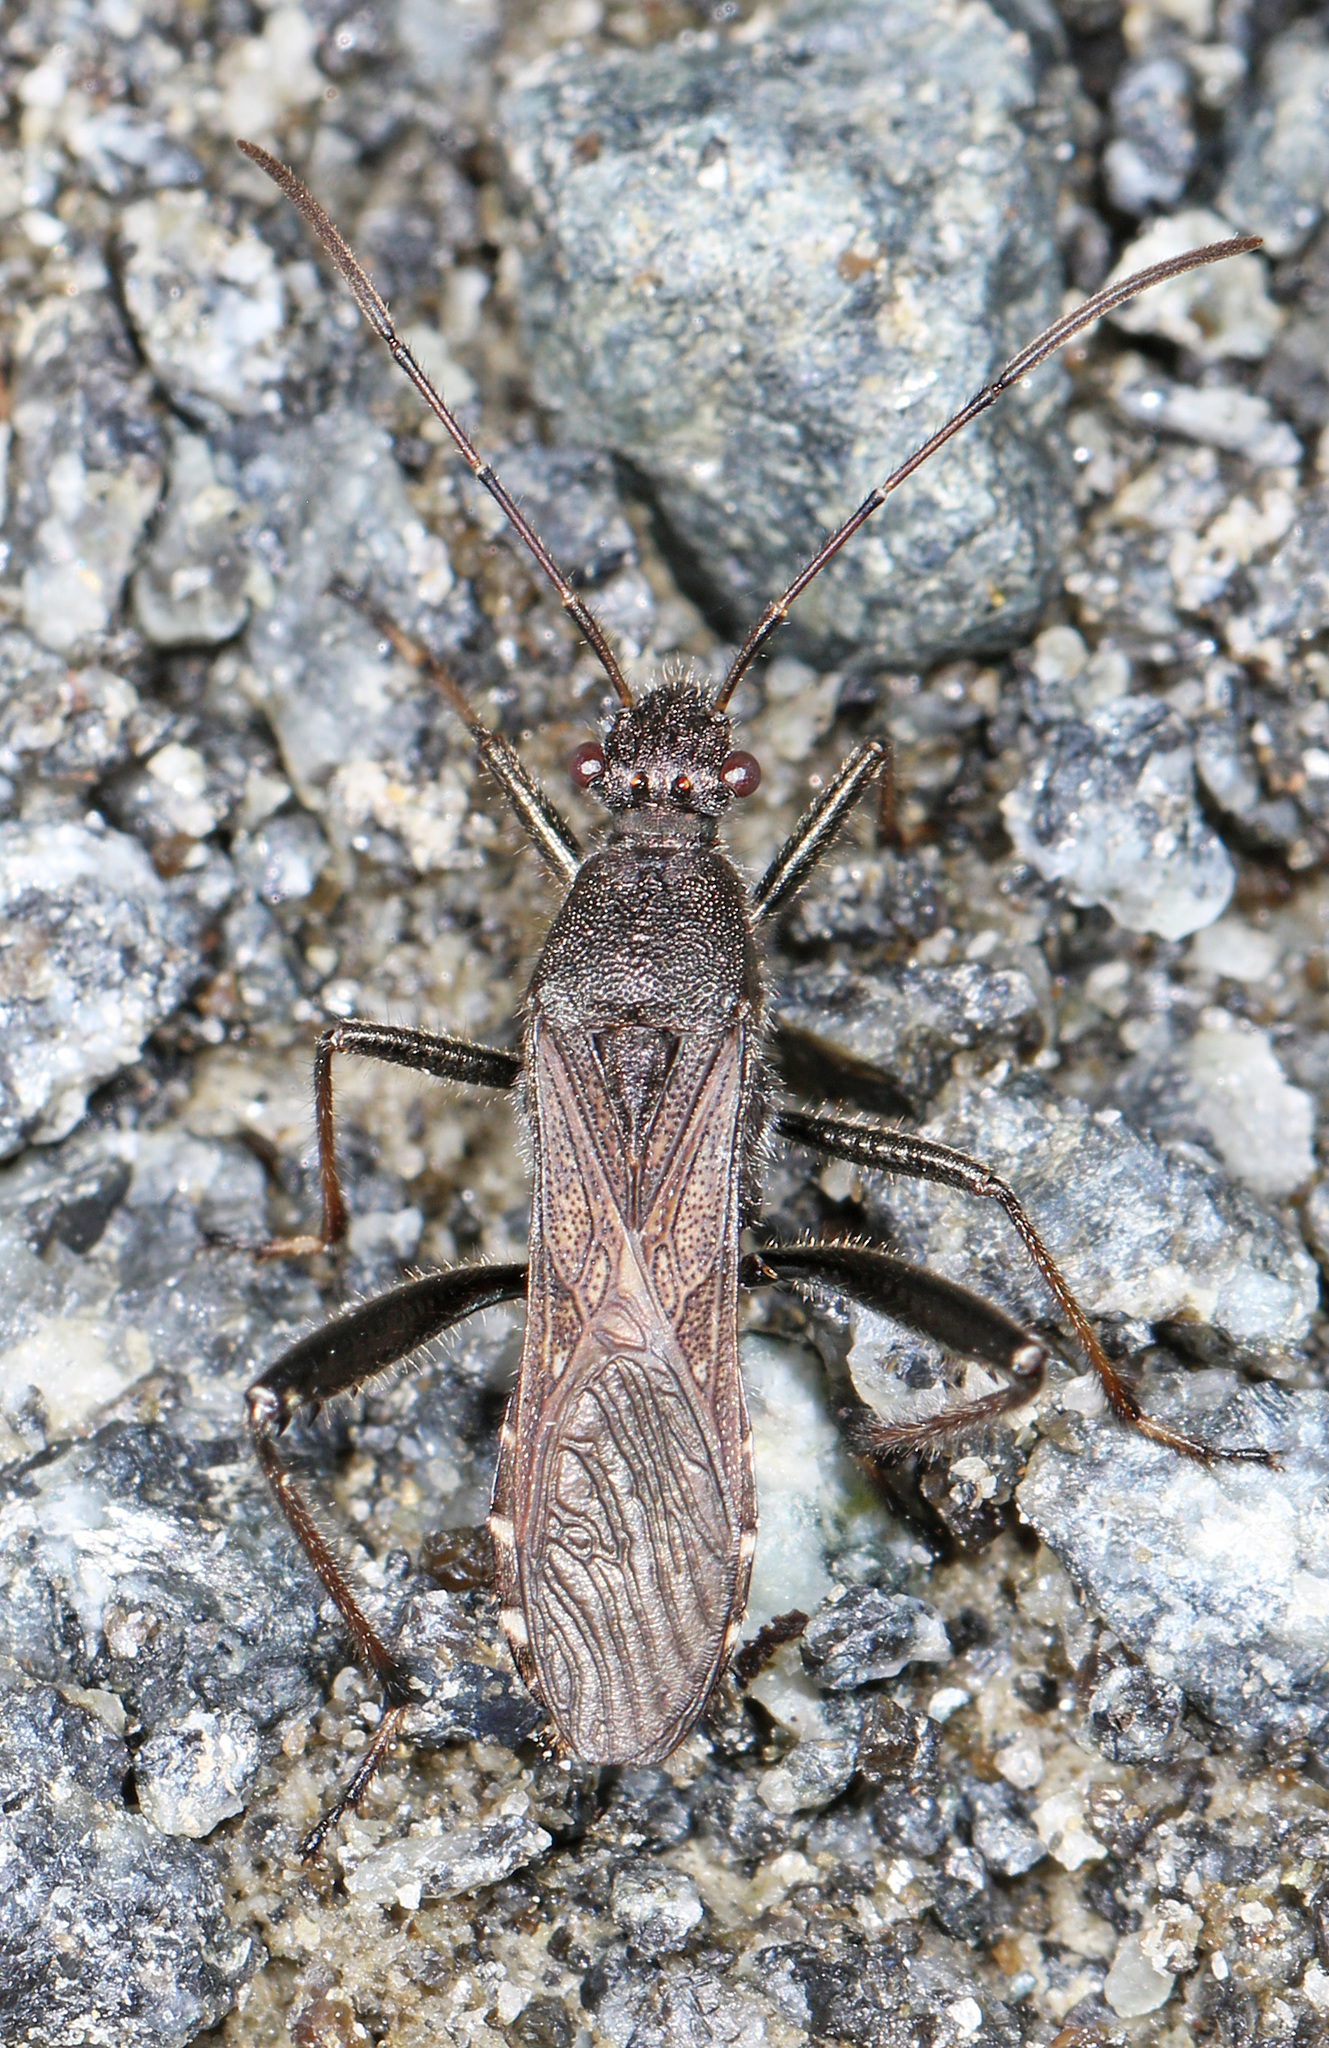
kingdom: Animalia
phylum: Arthropoda
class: Insecta
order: Hemiptera
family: Alydidae
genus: Alydus
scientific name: Alydus eurinus
